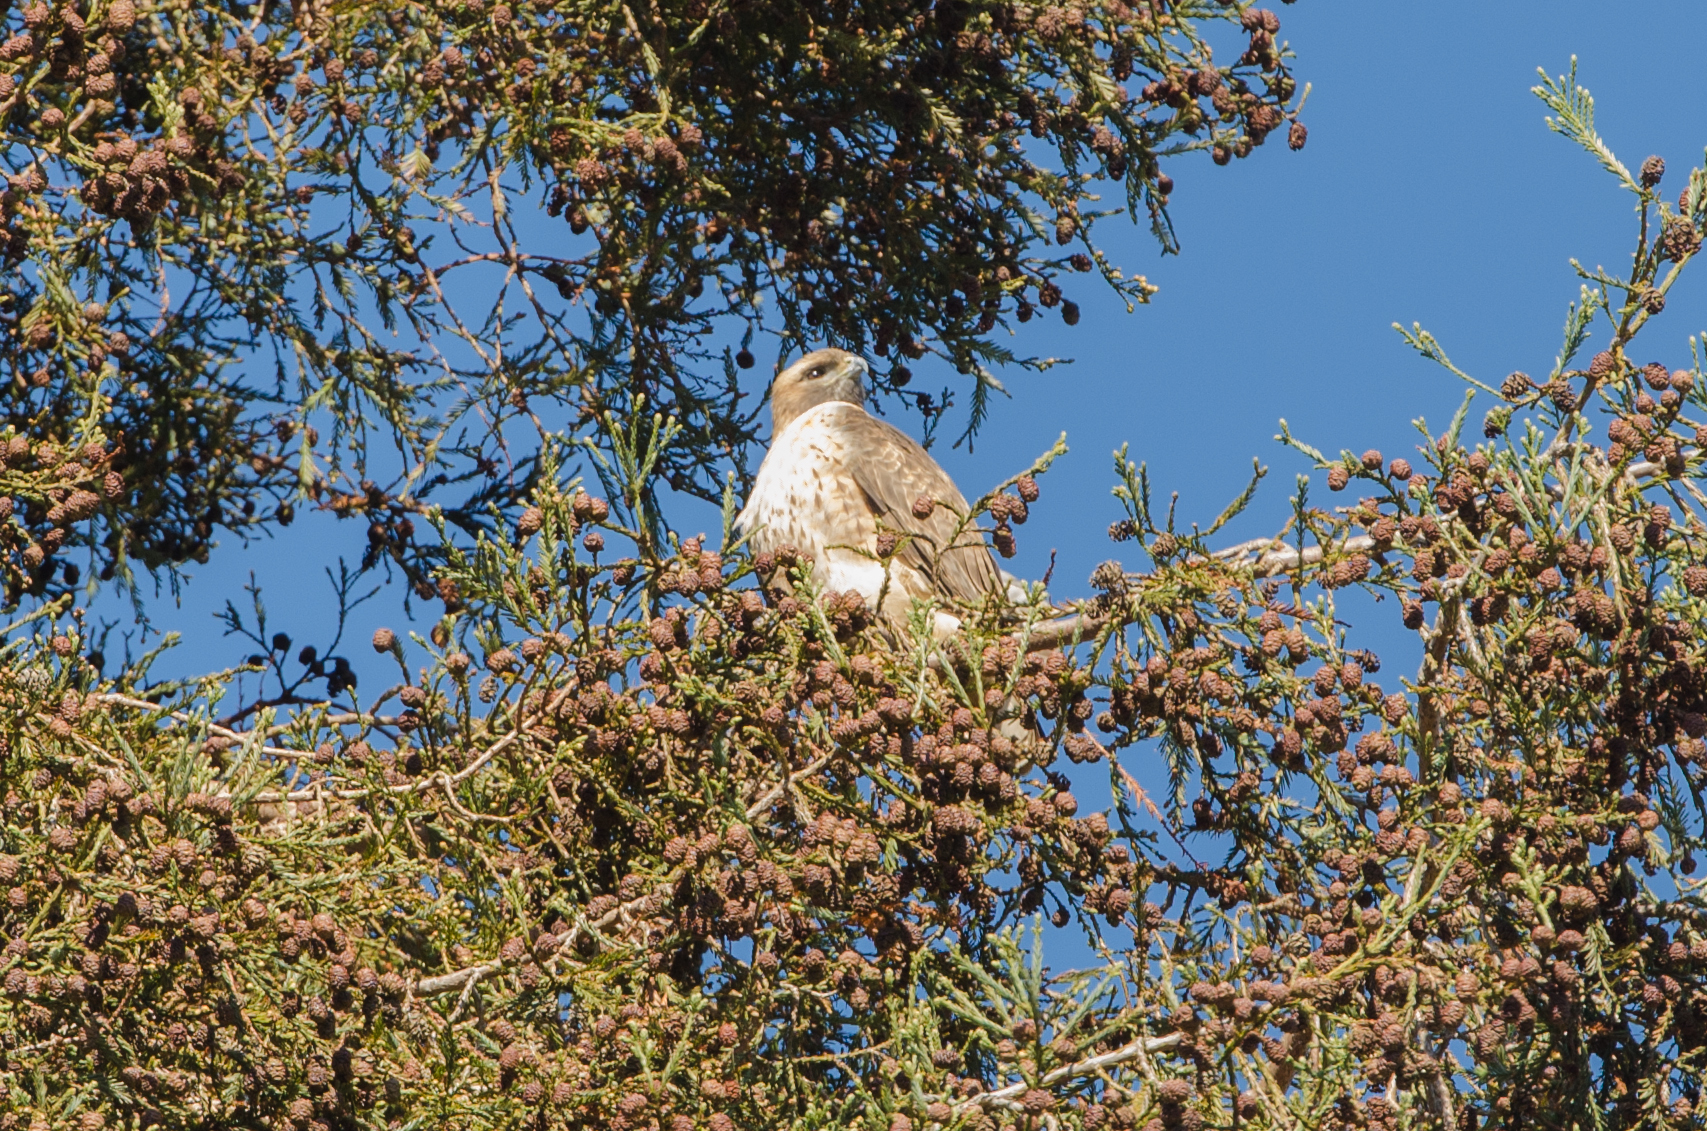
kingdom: Animalia
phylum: Chordata
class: Aves
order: Accipitriformes
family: Accipitridae
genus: Buteo
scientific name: Buteo jamaicensis
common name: Red-tailed hawk
